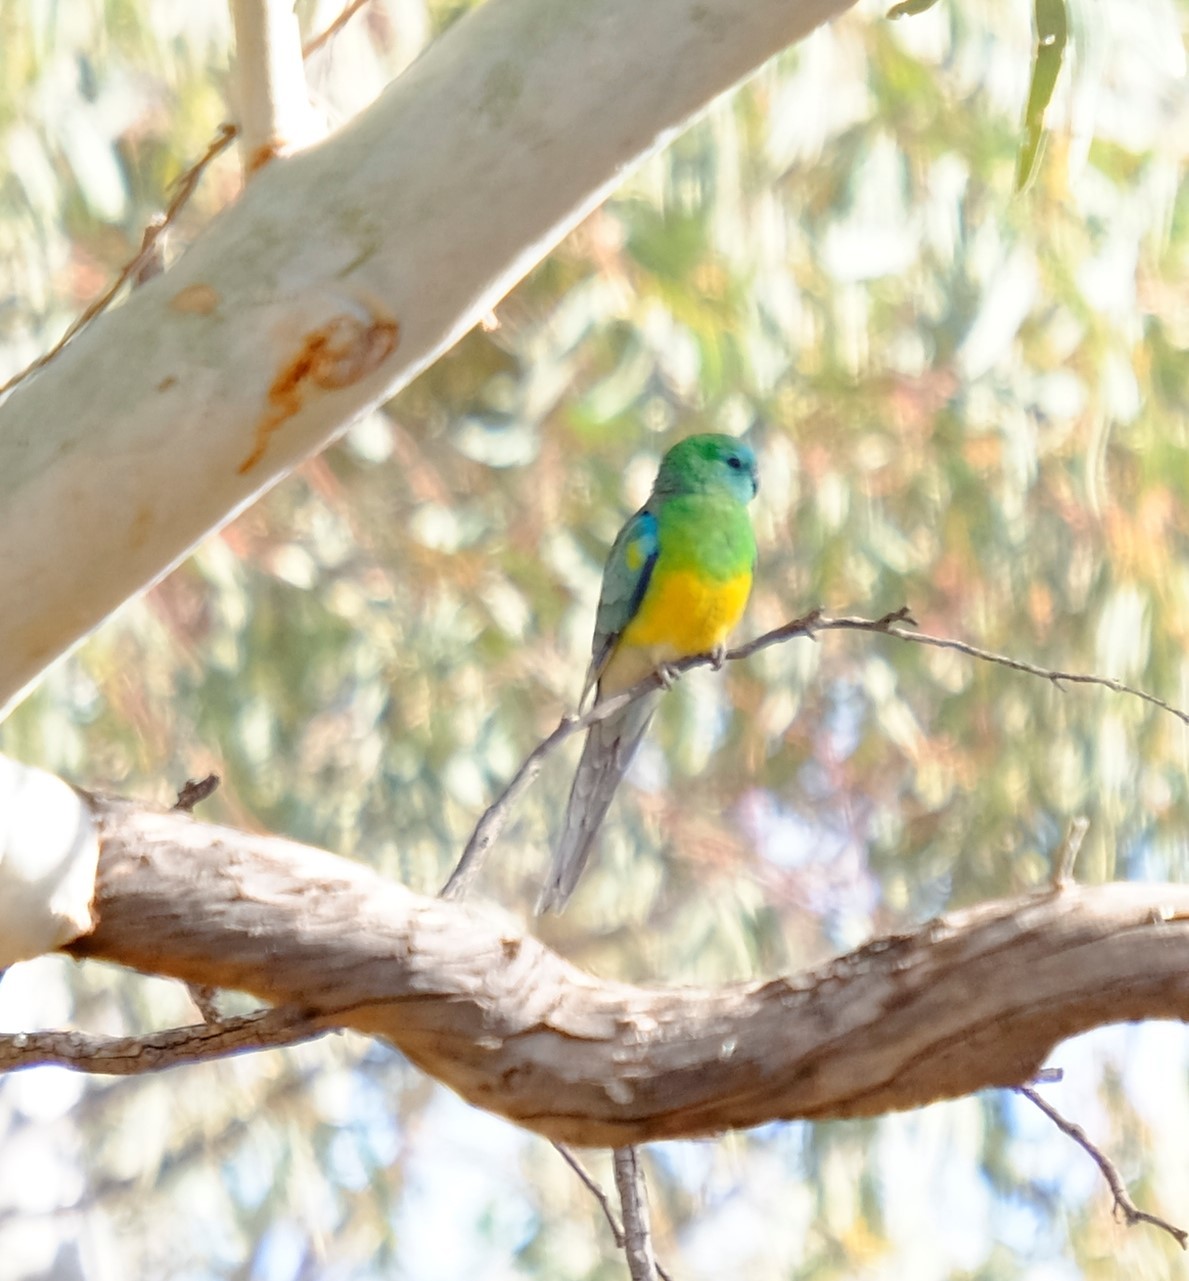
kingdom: Animalia
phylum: Chordata
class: Aves
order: Psittaciformes
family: Psittacidae
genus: Psephotus
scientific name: Psephotus haematonotus
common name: Red-rumped parrot
